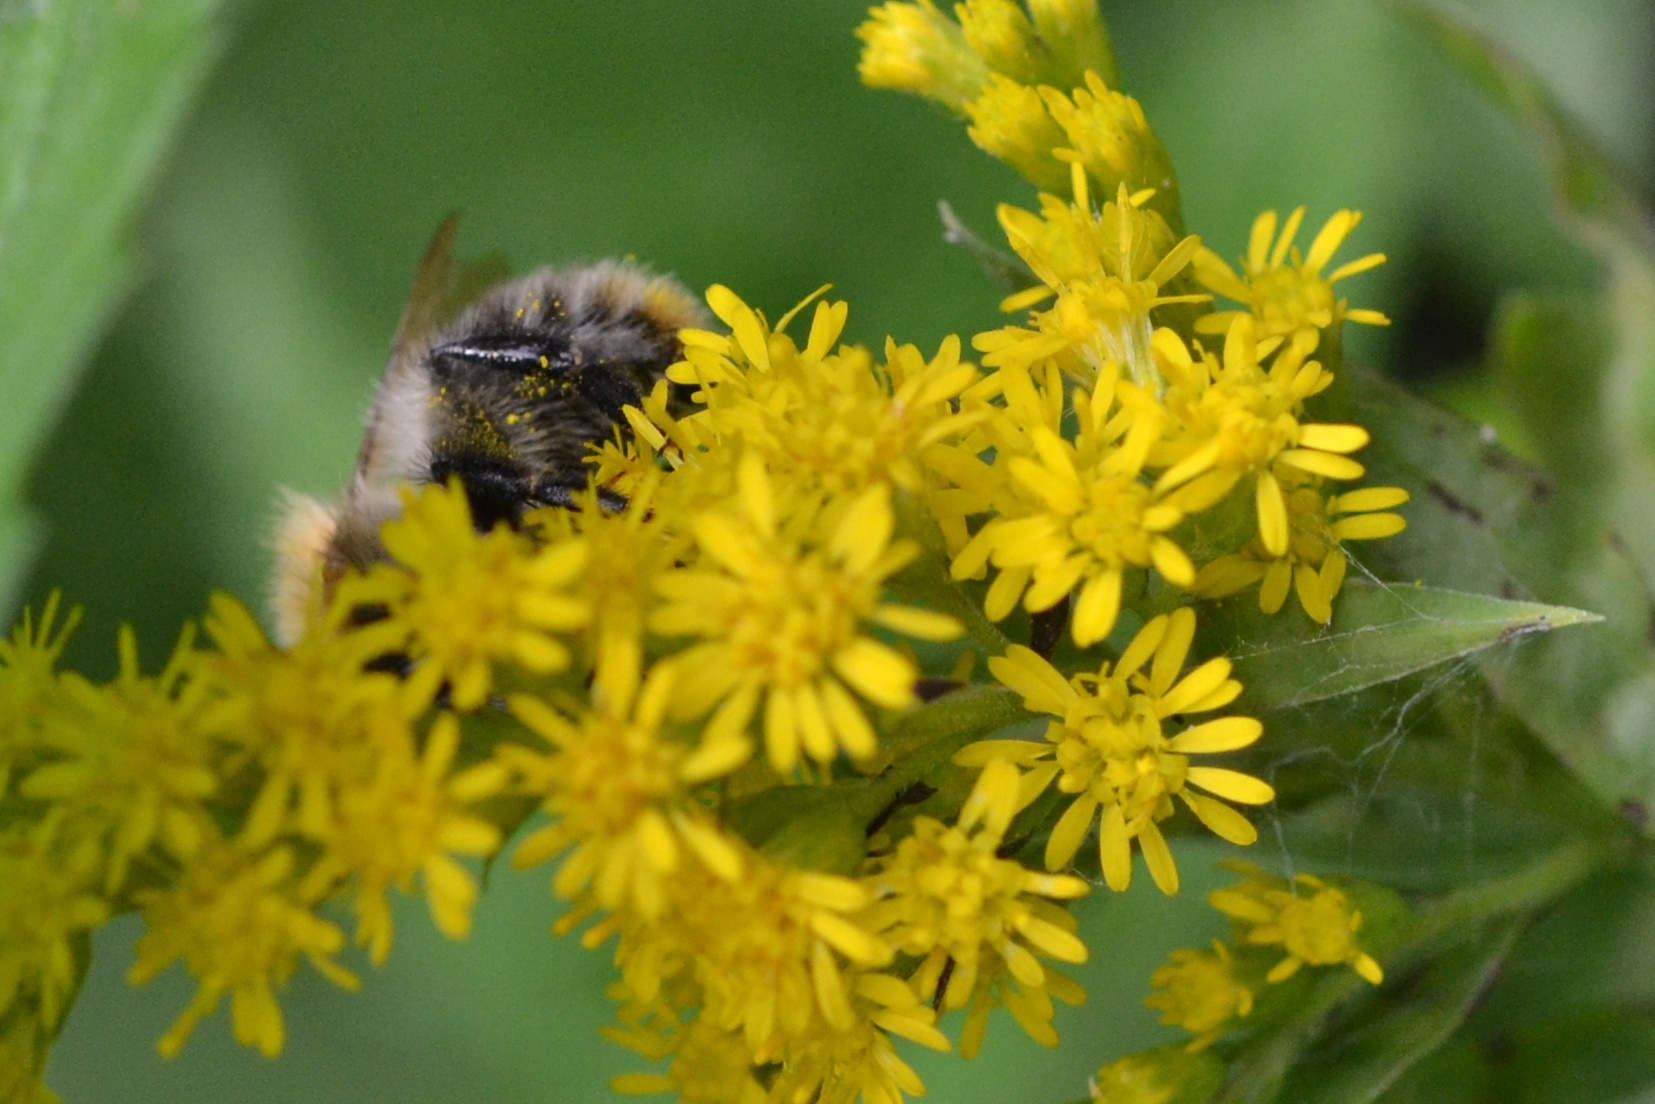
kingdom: Animalia
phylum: Arthropoda
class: Insecta
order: Hymenoptera
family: Apidae
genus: Bombus
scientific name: Bombus pascuorum
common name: Common carder bee
